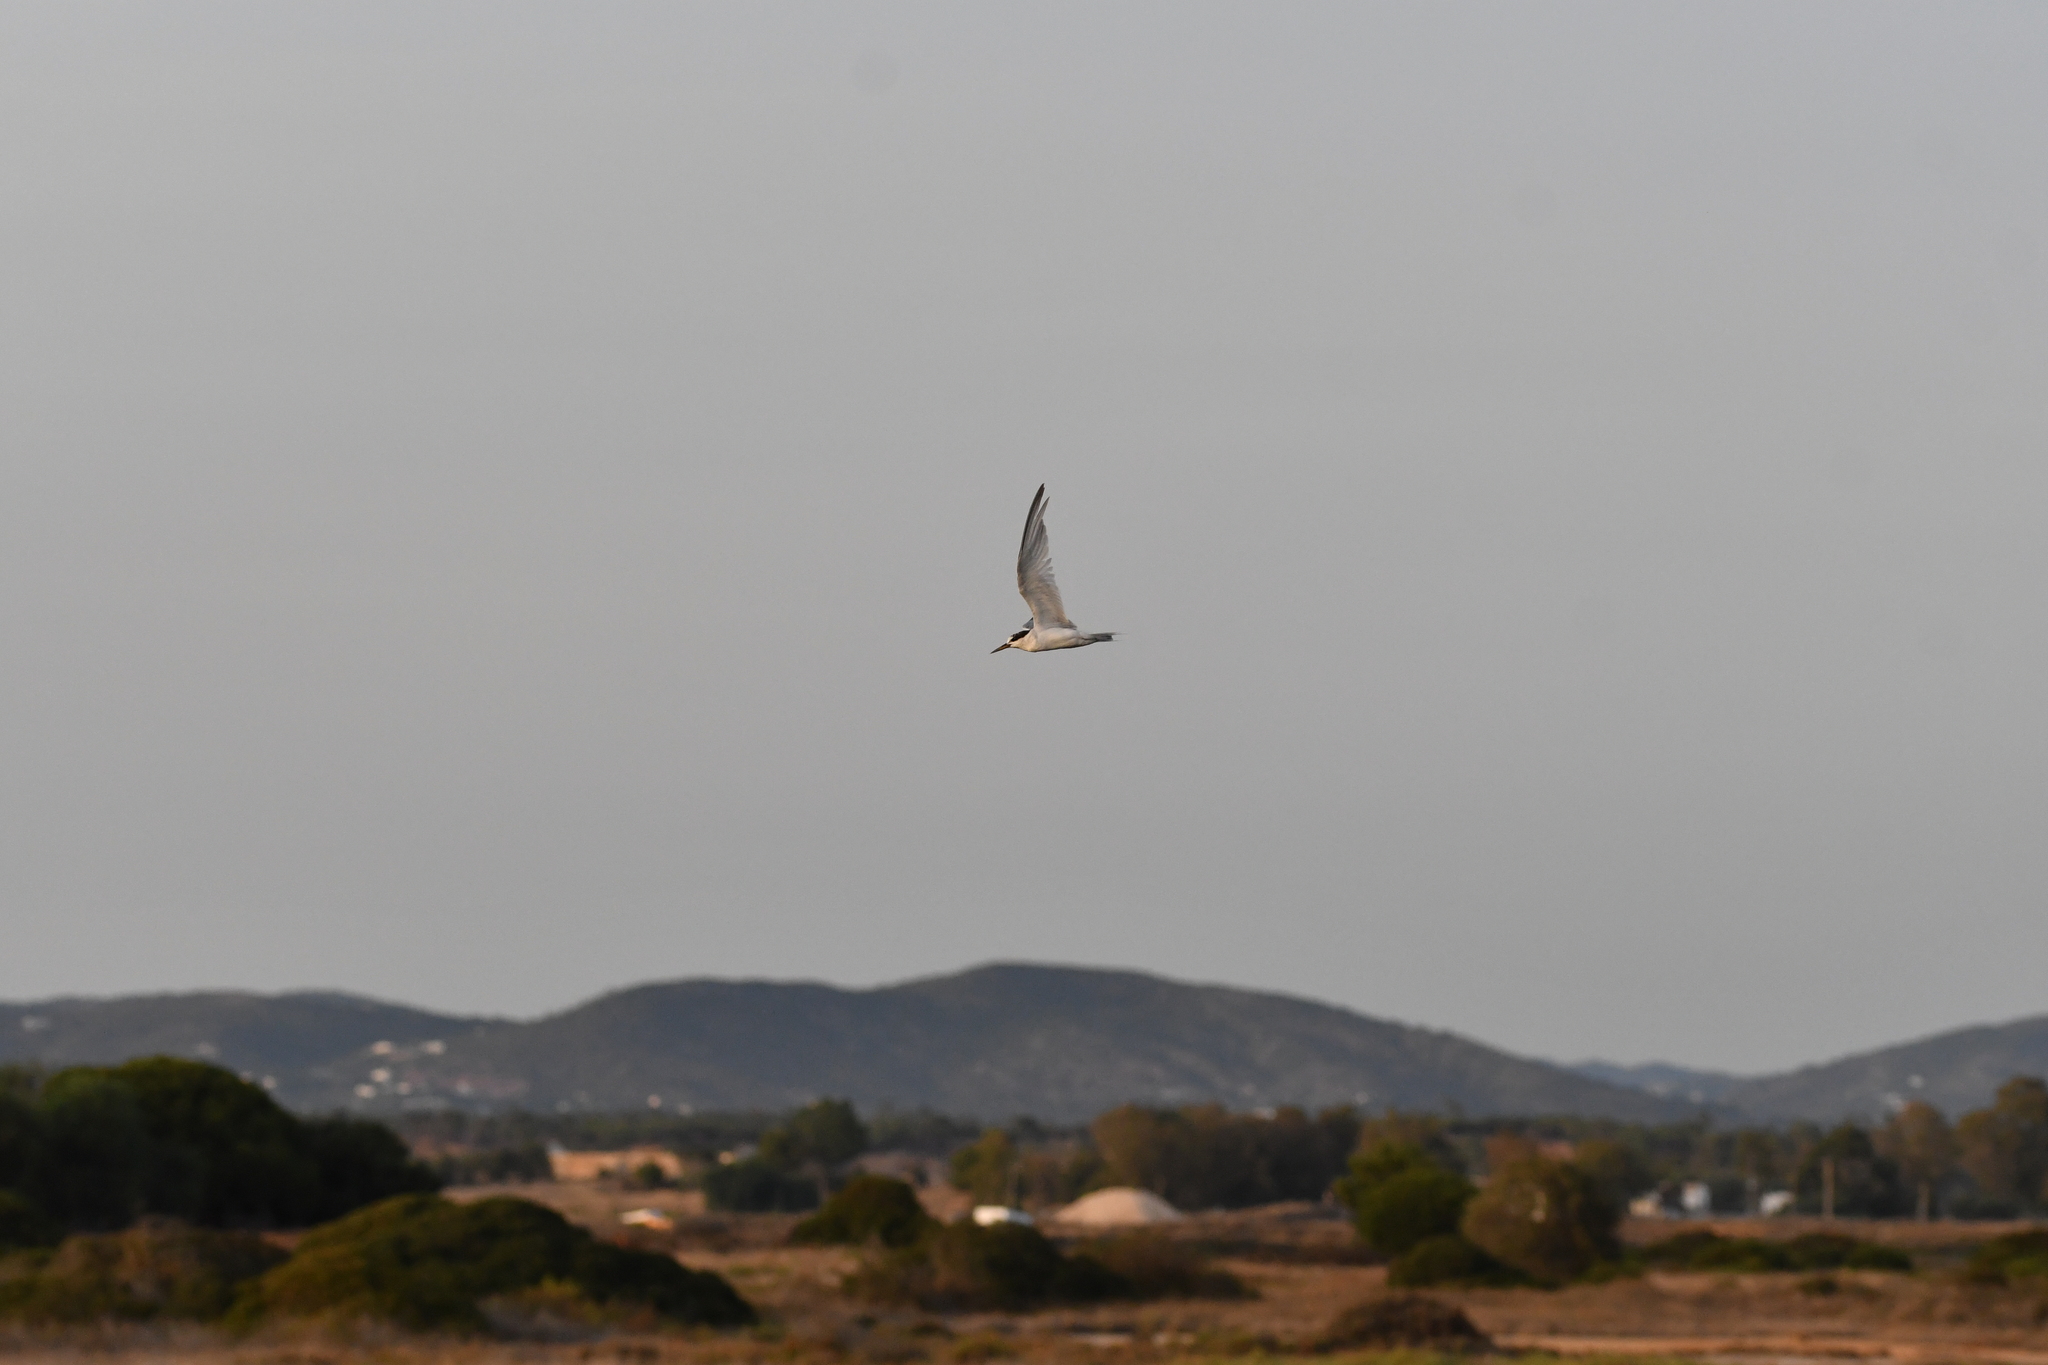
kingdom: Animalia
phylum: Chordata
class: Aves
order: Charadriiformes
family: Laridae
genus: Sternula
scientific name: Sternula albifrons
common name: Little tern
